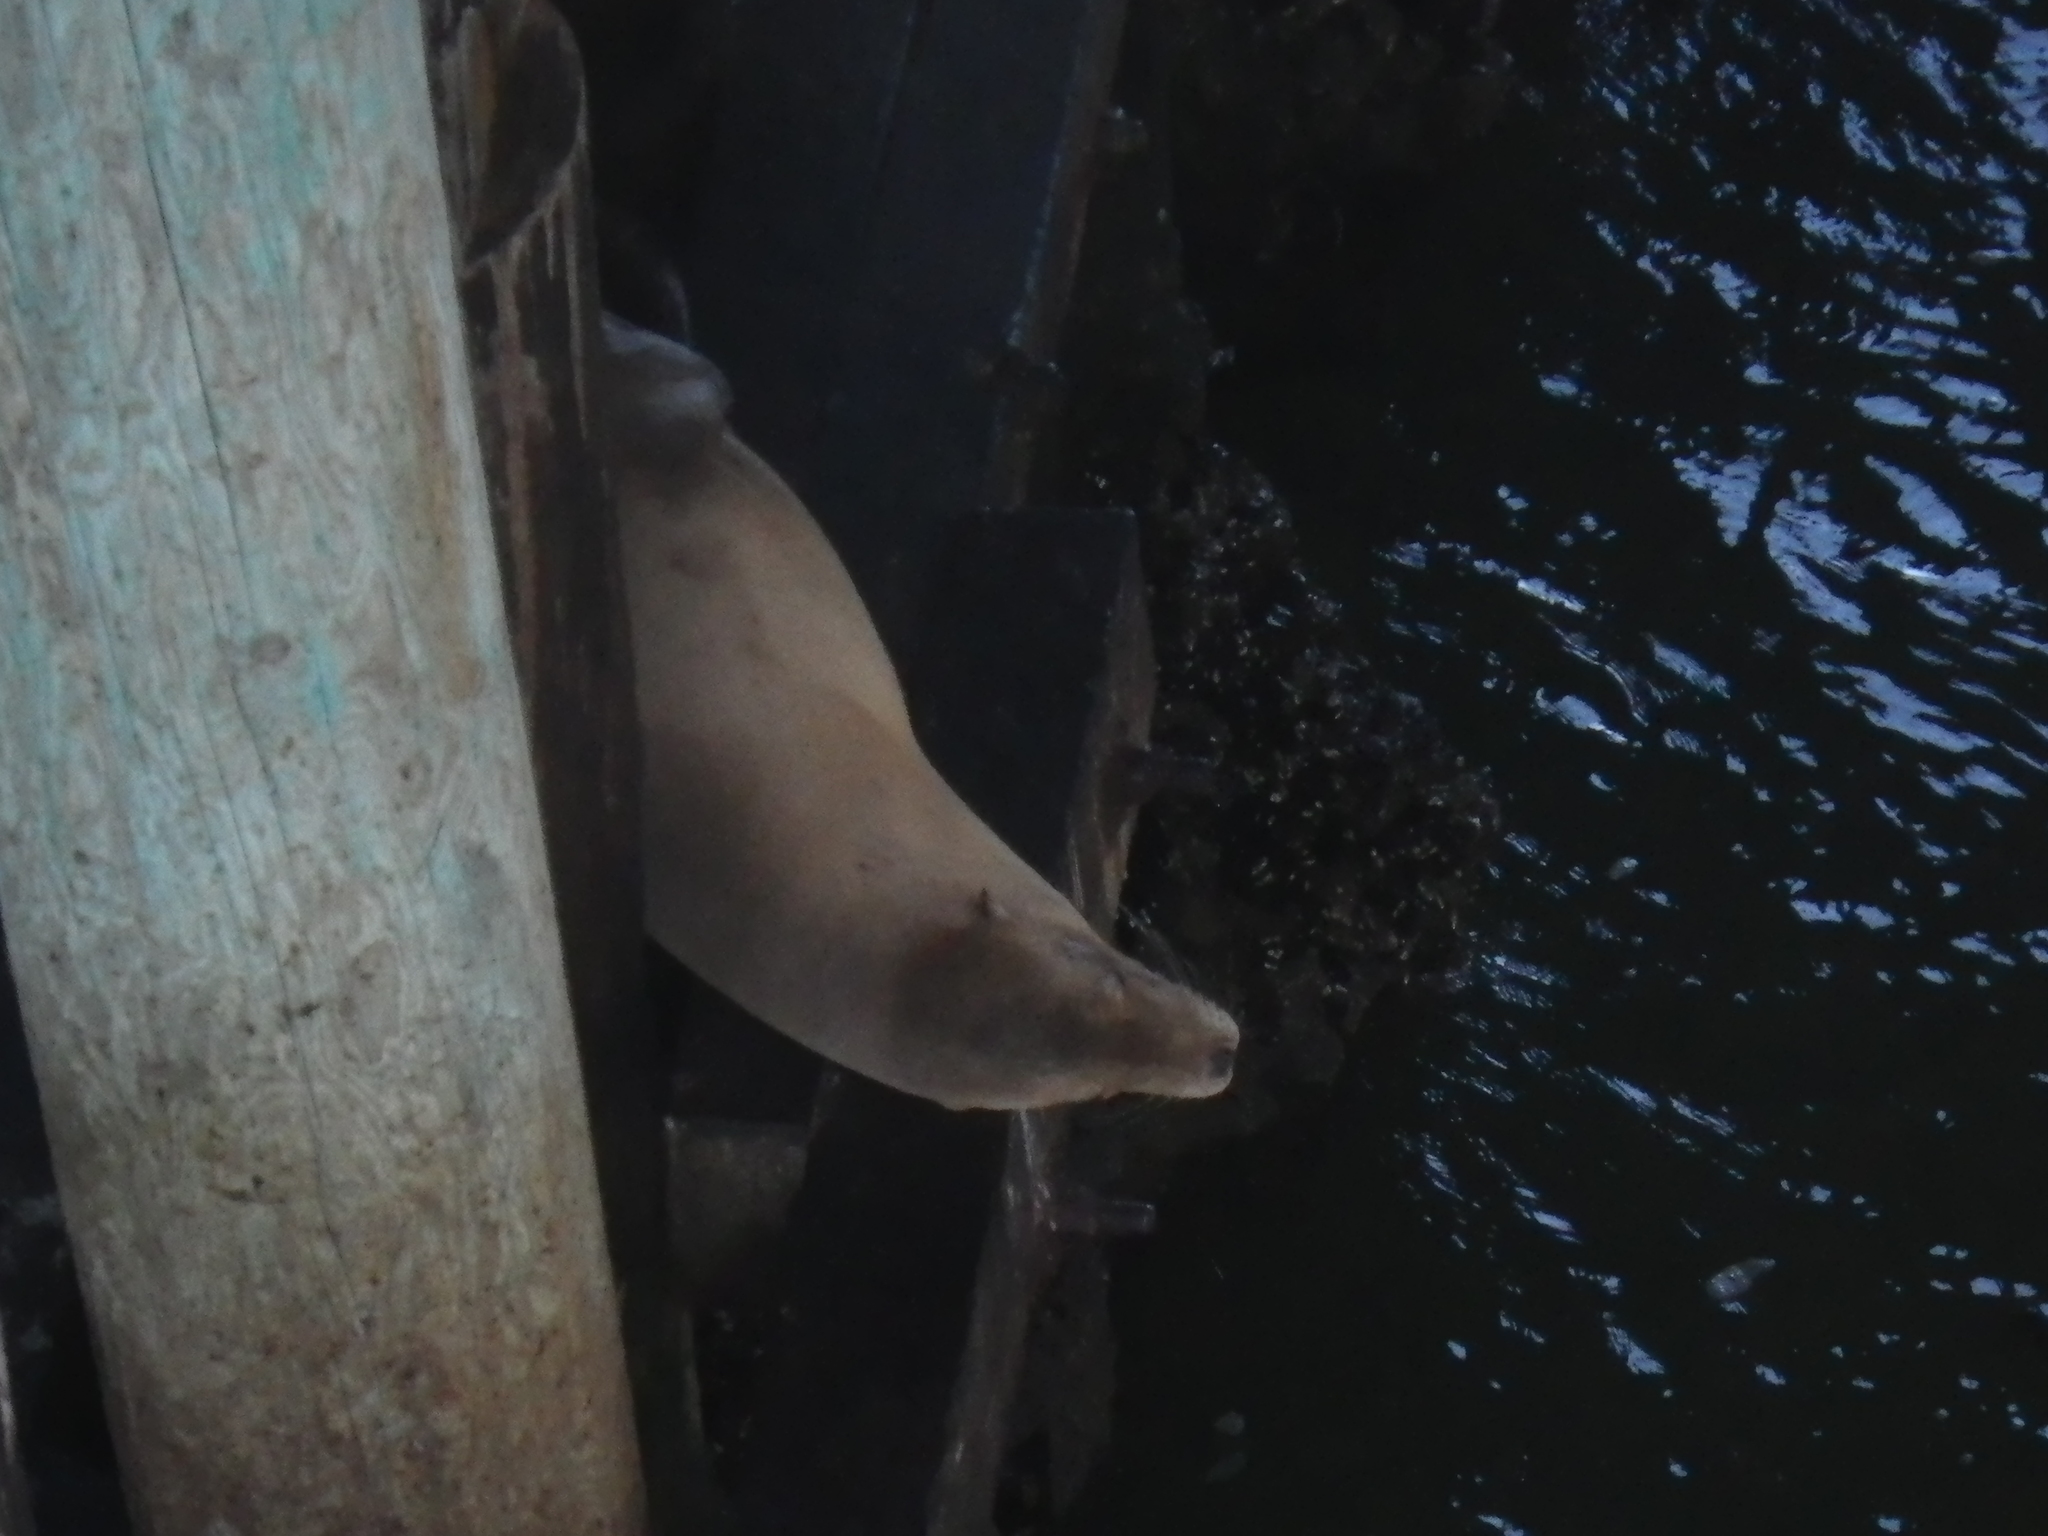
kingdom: Animalia
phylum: Chordata
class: Mammalia
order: Carnivora
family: Otariidae
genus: Zalophus
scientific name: Zalophus californianus
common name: California sea lion
